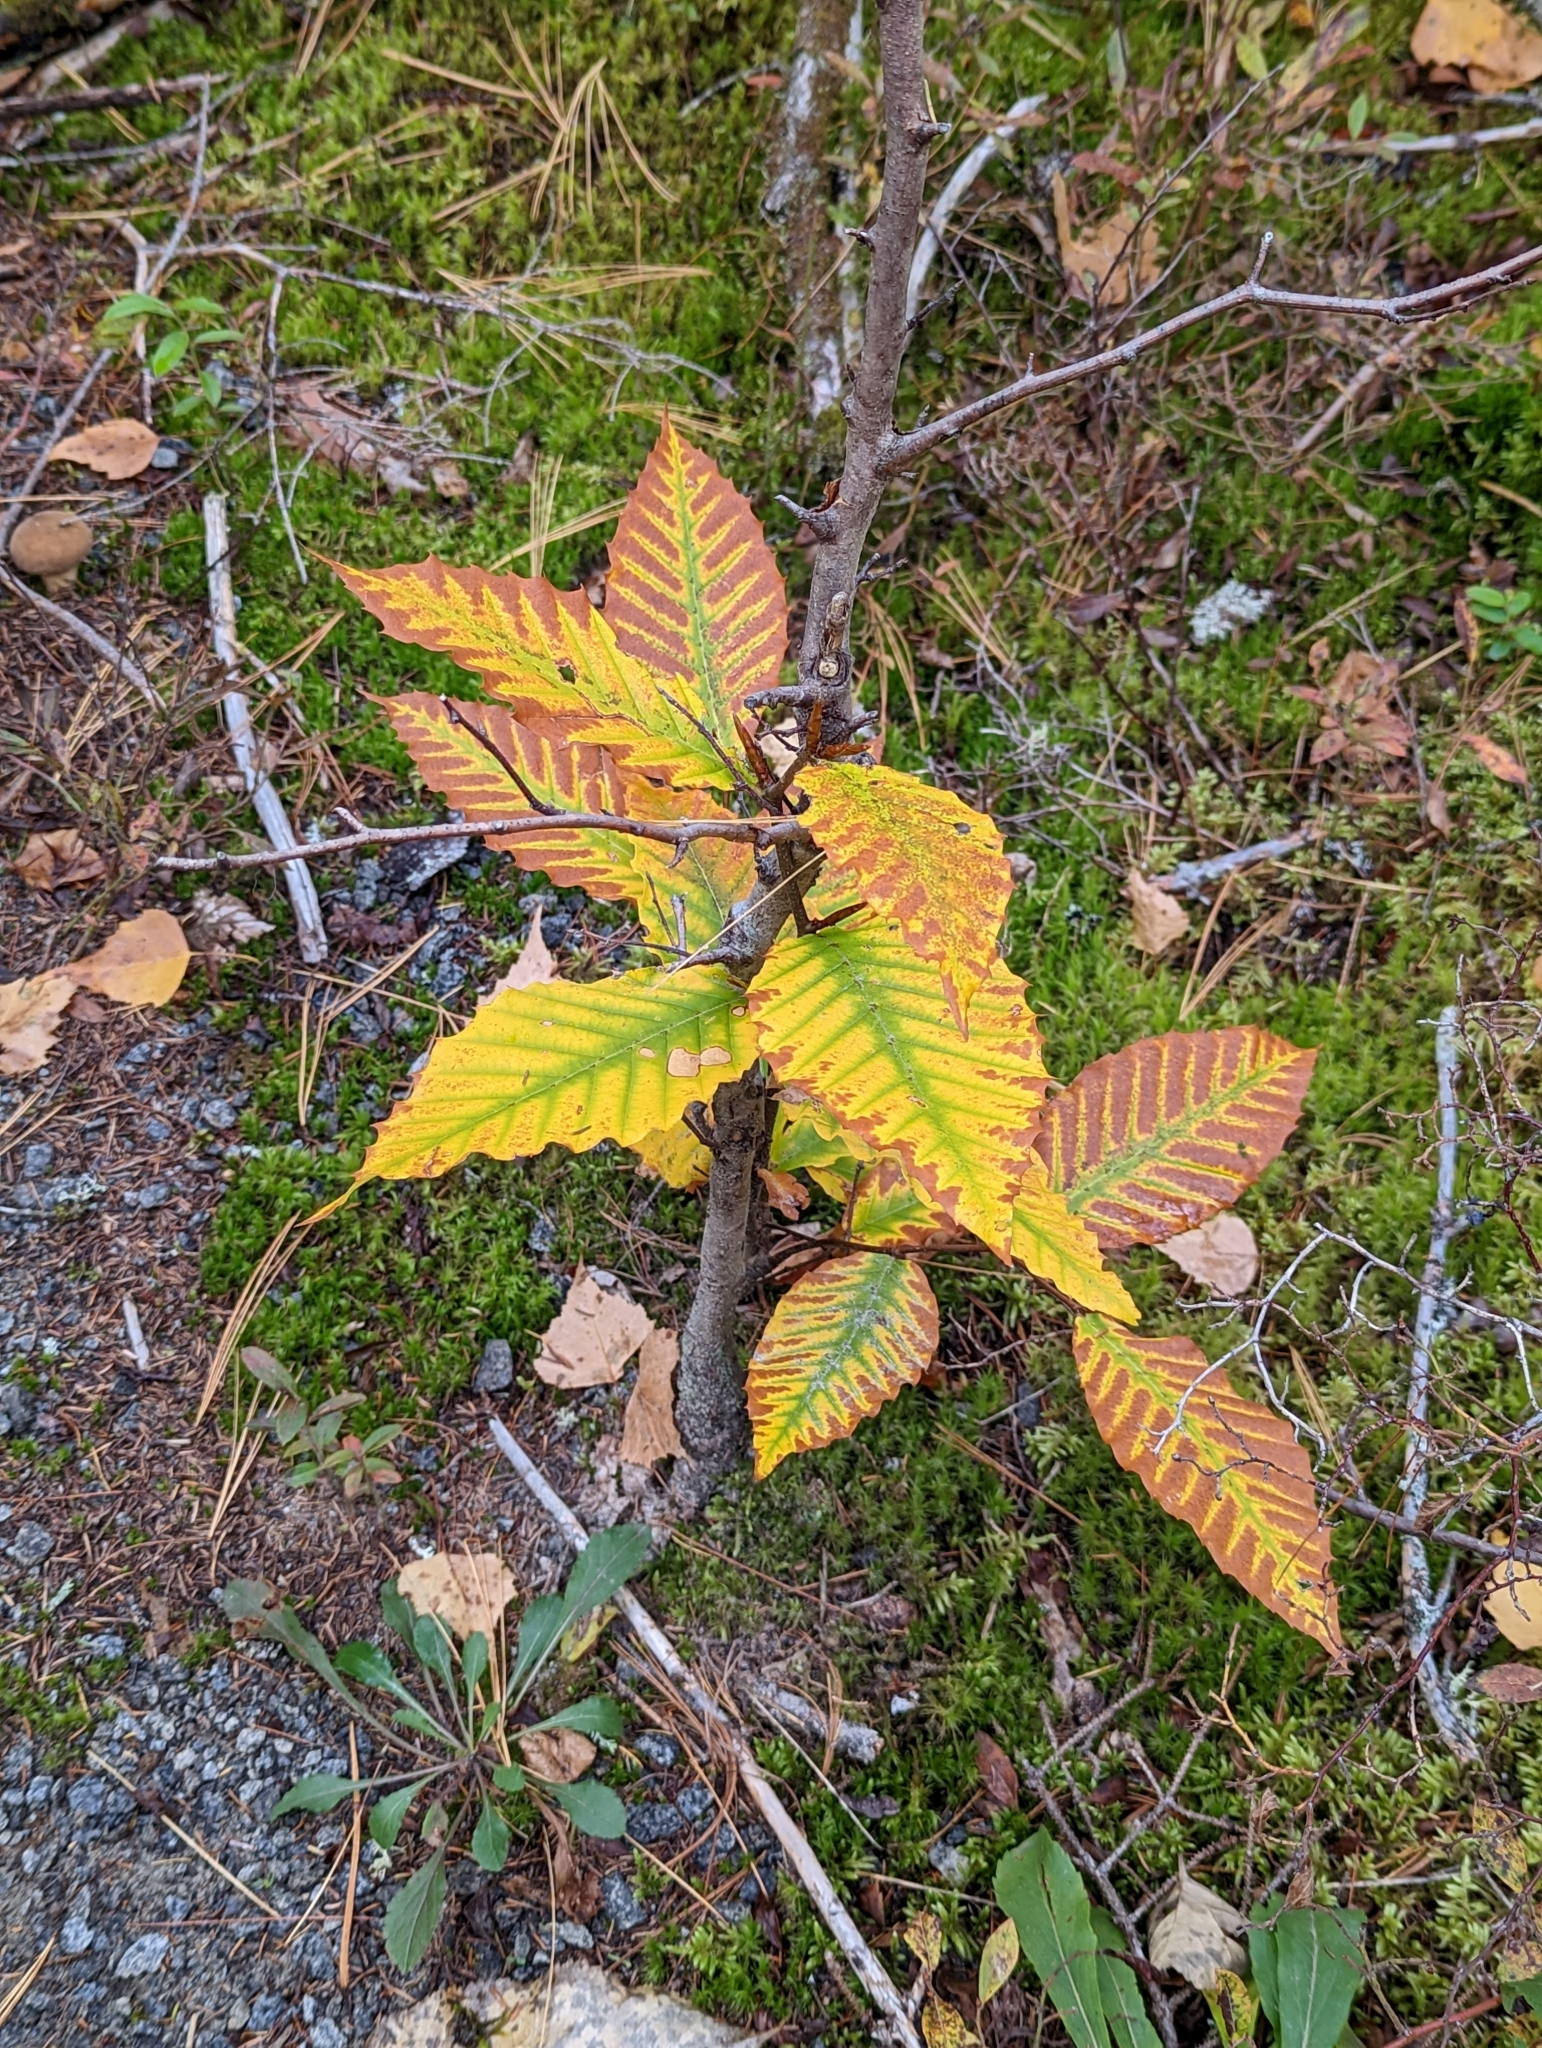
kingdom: Plantae
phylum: Tracheophyta
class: Magnoliopsida
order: Fagales
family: Fagaceae
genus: Fagus
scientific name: Fagus grandifolia
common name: American beech
